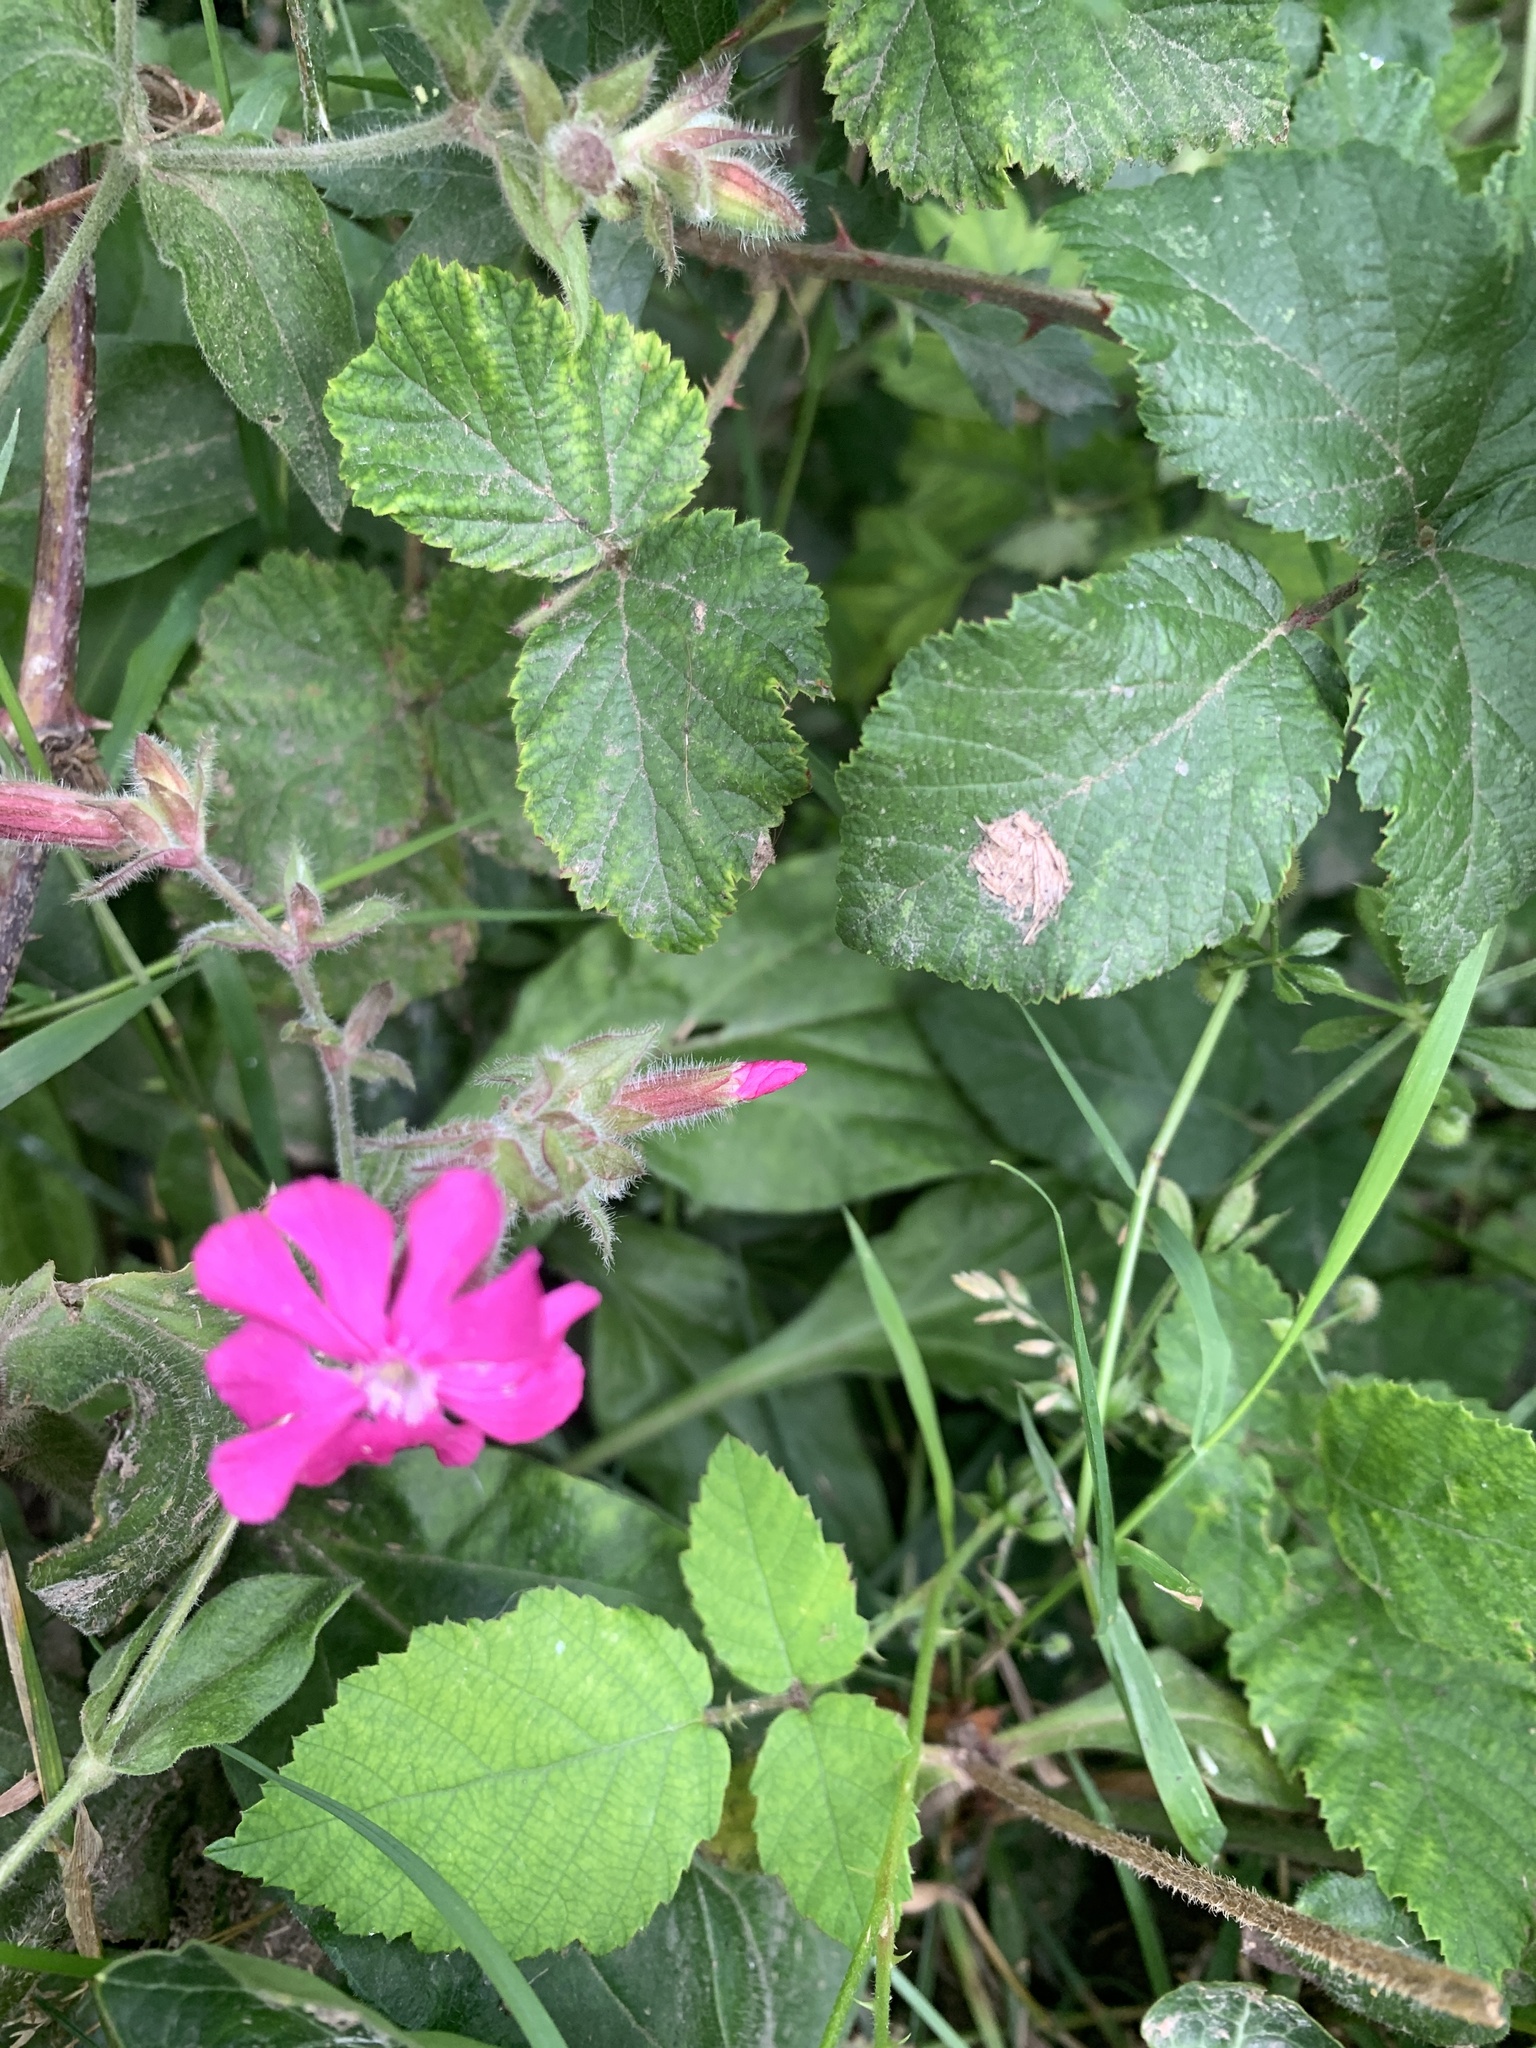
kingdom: Plantae
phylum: Tracheophyta
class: Magnoliopsida
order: Caryophyllales
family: Caryophyllaceae
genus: Silene
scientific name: Silene dioica
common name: Red campion
